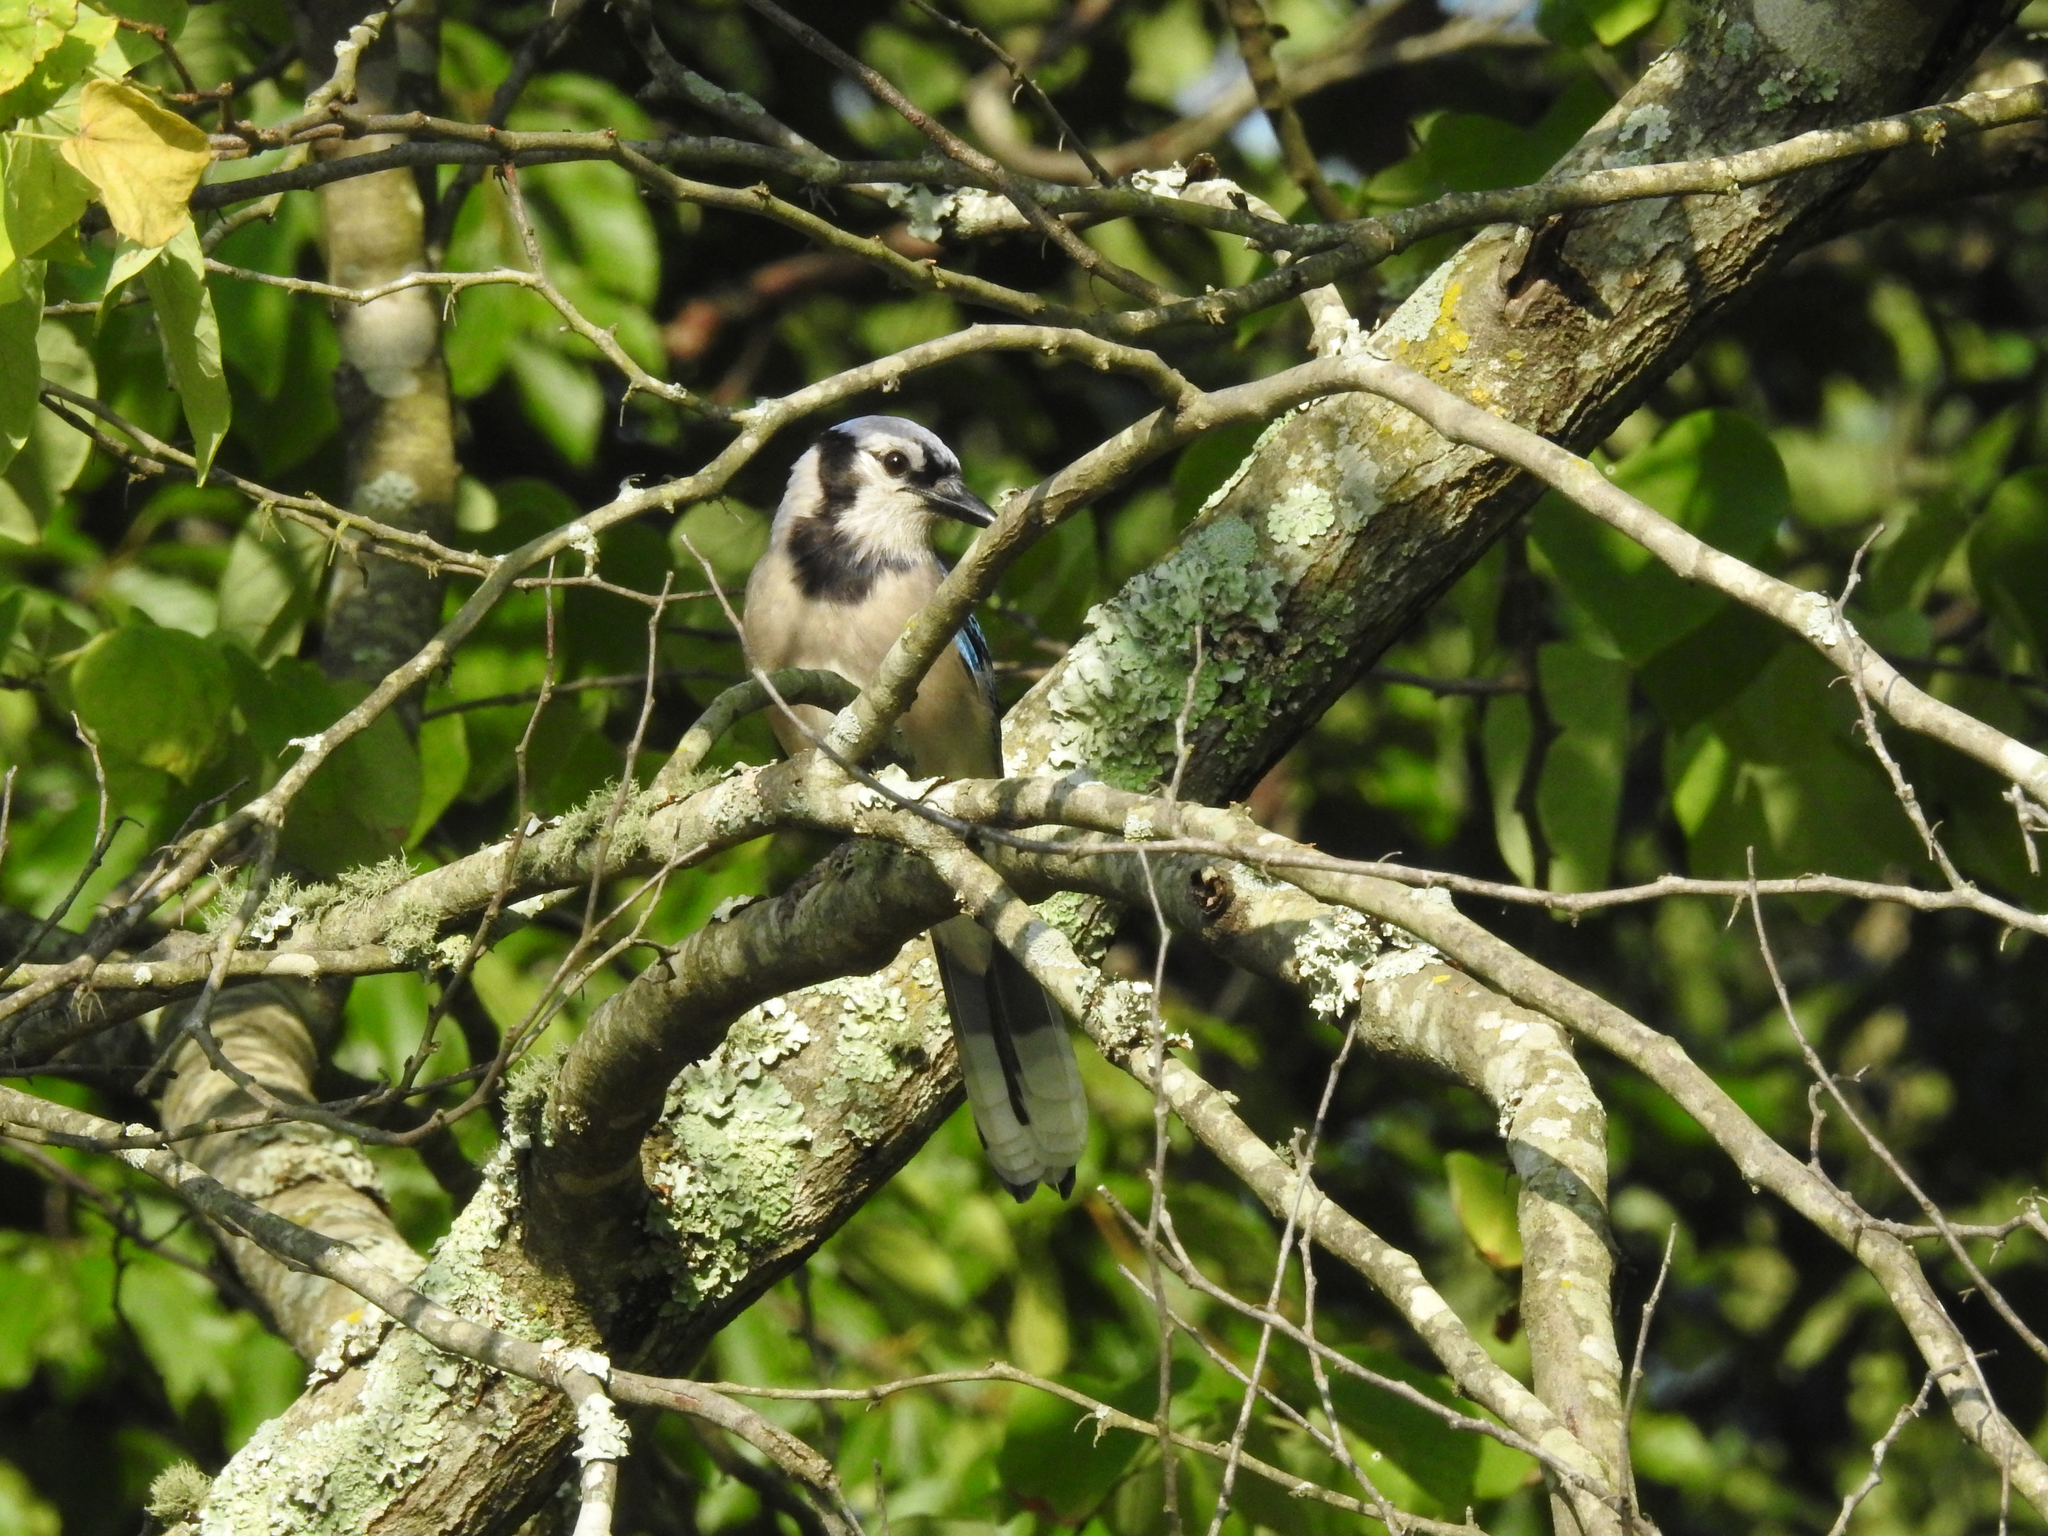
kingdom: Animalia
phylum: Chordata
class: Aves
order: Passeriformes
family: Corvidae
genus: Cyanocitta
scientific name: Cyanocitta cristata
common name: Blue jay
